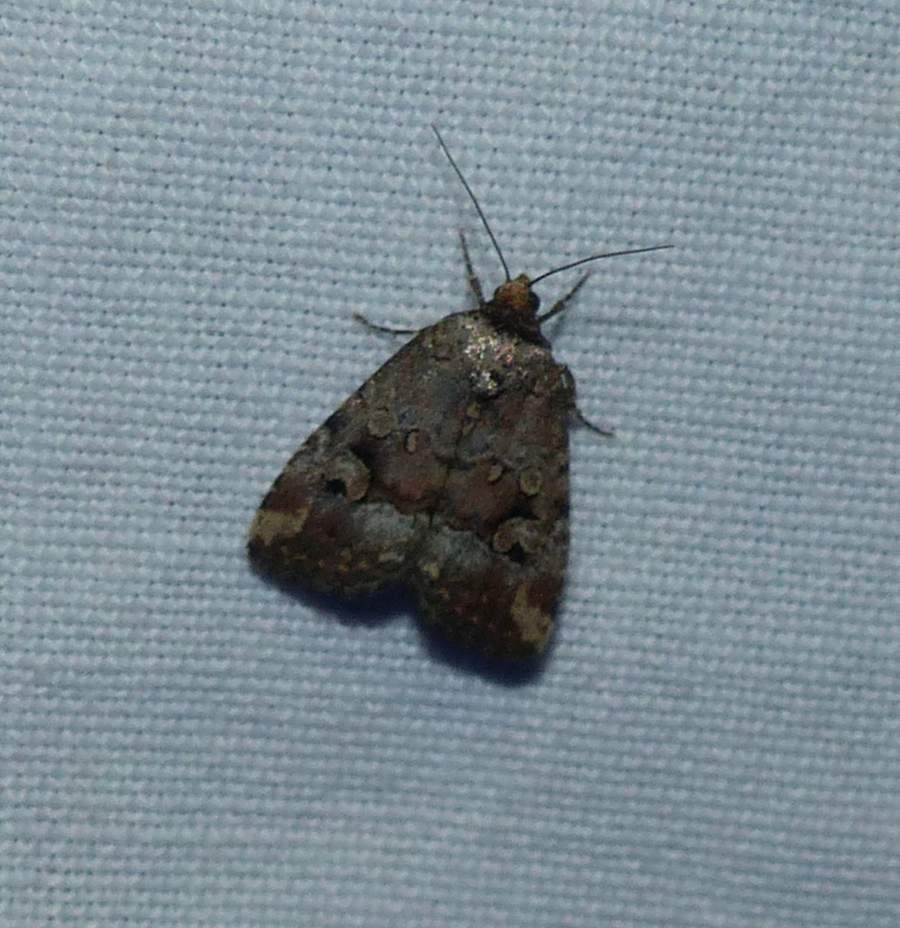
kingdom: Animalia
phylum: Arthropoda
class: Insecta
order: Lepidoptera
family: Noctuidae
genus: Elaphria
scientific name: Elaphria alapallida
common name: Pale-winged midget
